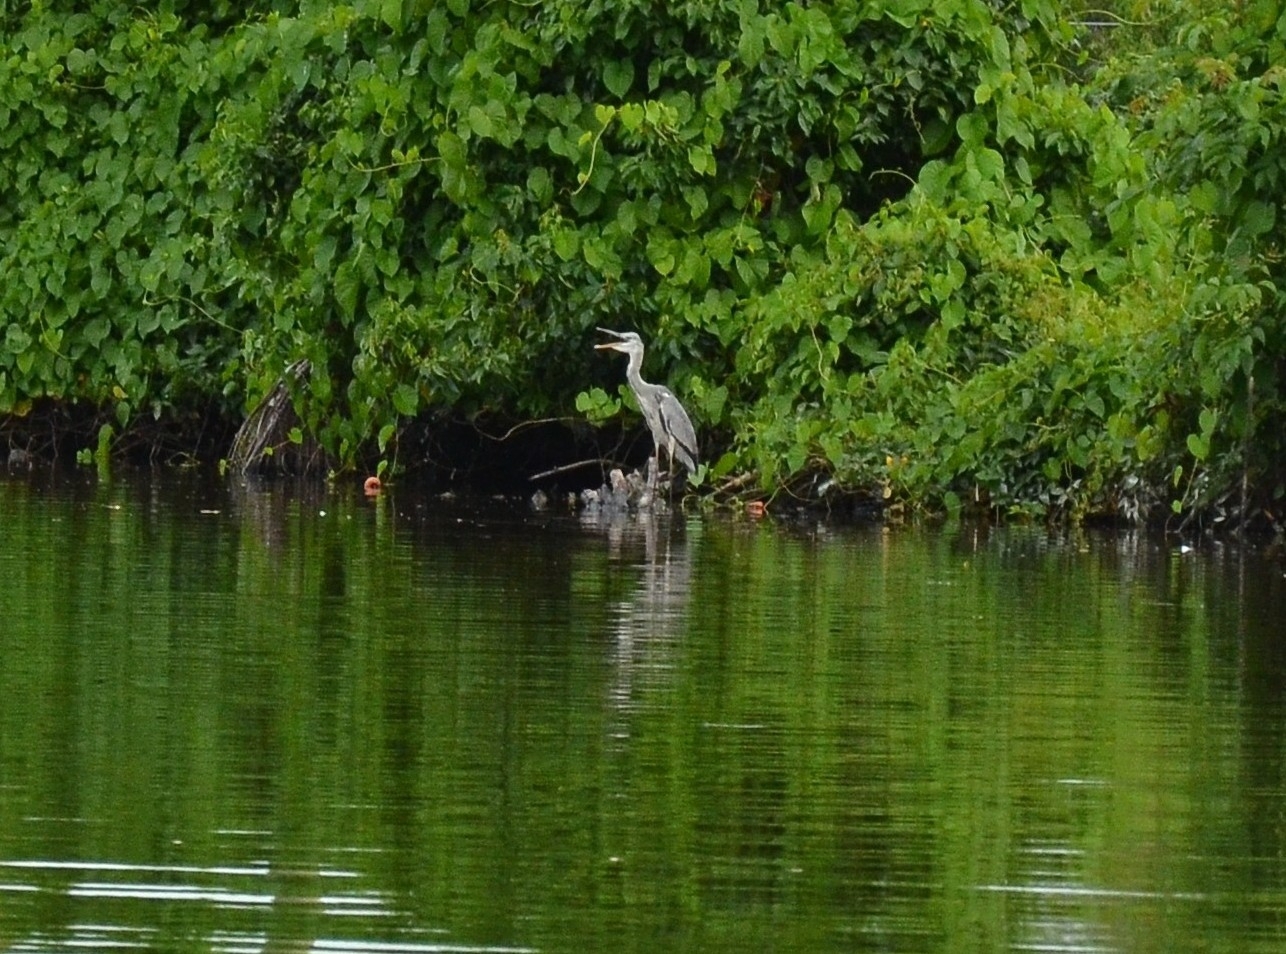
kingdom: Animalia
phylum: Chordata
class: Aves
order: Pelecaniformes
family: Ardeidae
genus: Ardea
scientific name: Ardea cinerea
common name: Grey heron
